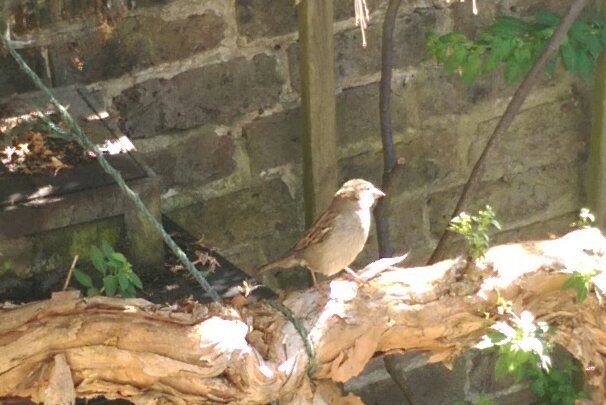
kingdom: Animalia
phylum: Chordata
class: Aves
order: Passeriformes
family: Passeridae
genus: Passer
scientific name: Passer domesticus
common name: House sparrow
